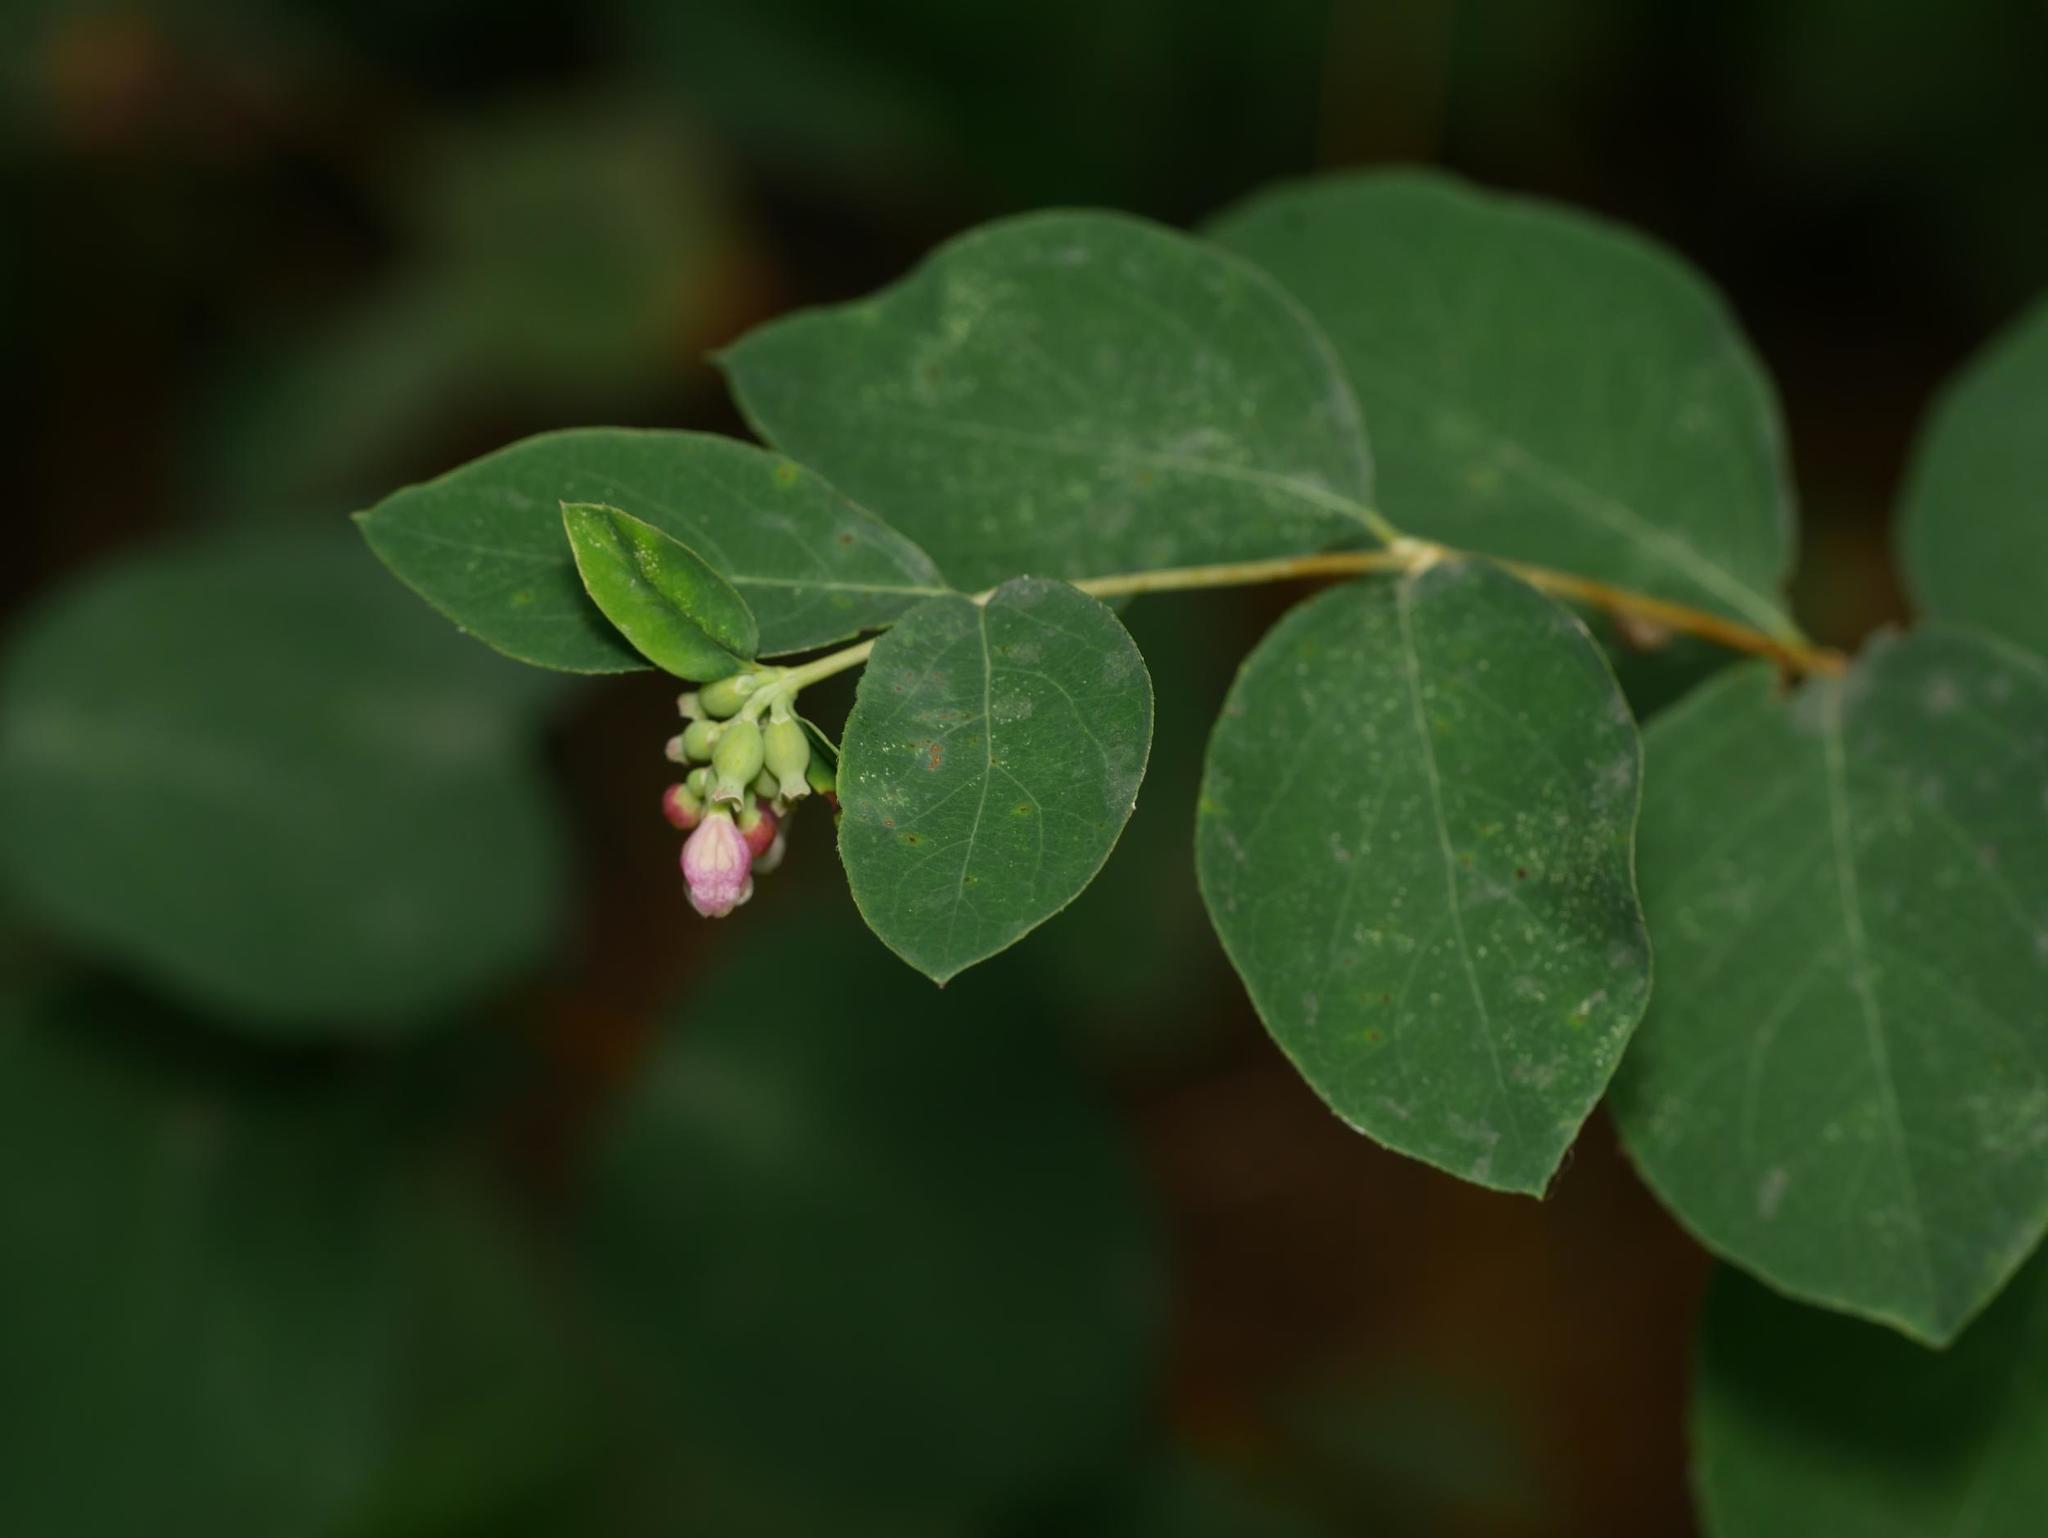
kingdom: Plantae
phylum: Tracheophyta
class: Magnoliopsida
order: Dipsacales
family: Caprifoliaceae
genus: Symphoricarpos
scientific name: Symphoricarpos albus
